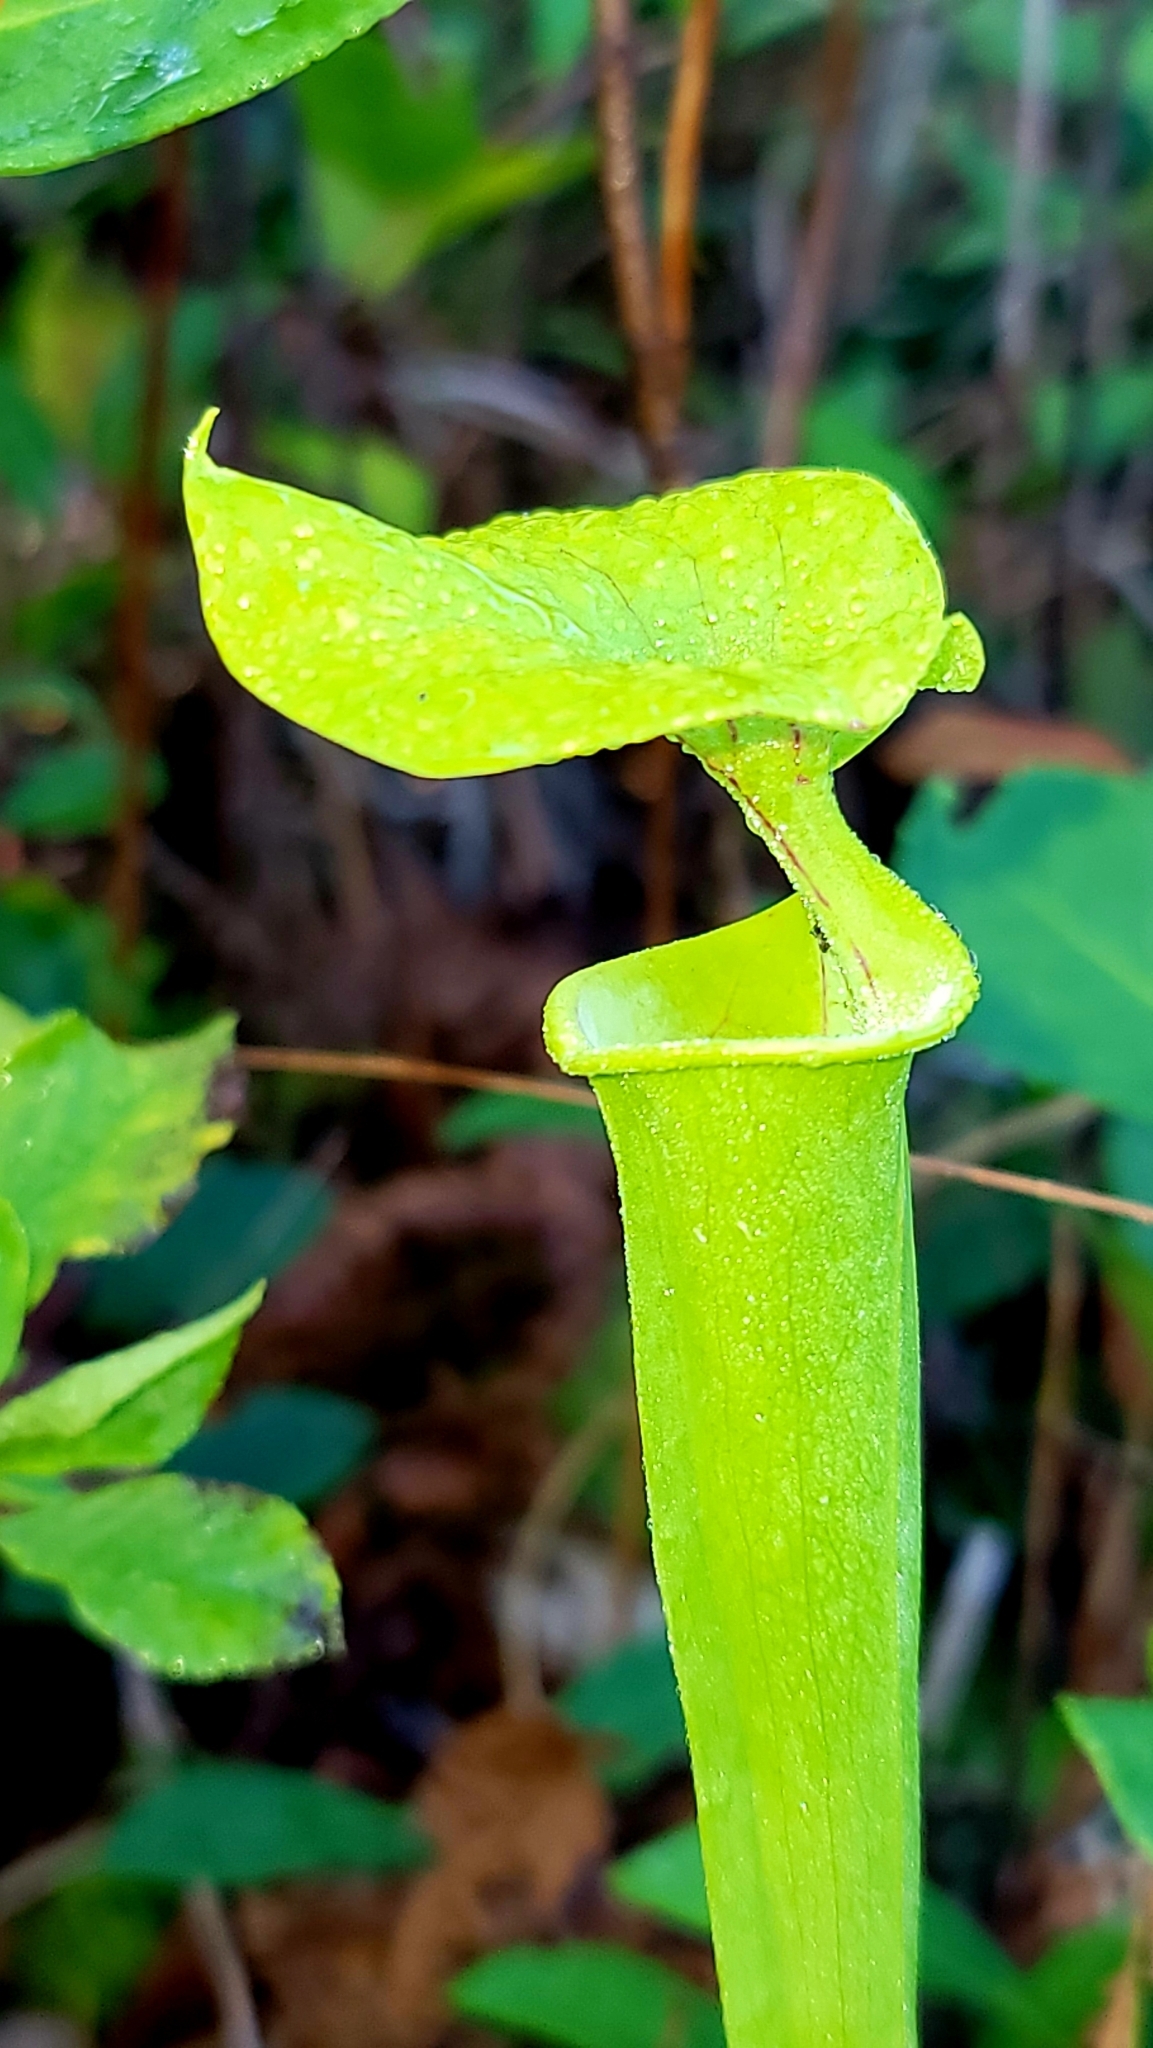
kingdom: Plantae
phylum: Tracheophyta
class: Magnoliopsida
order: Ericales
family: Sarraceniaceae
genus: Sarracenia
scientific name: Sarracenia flava
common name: Trumpets
